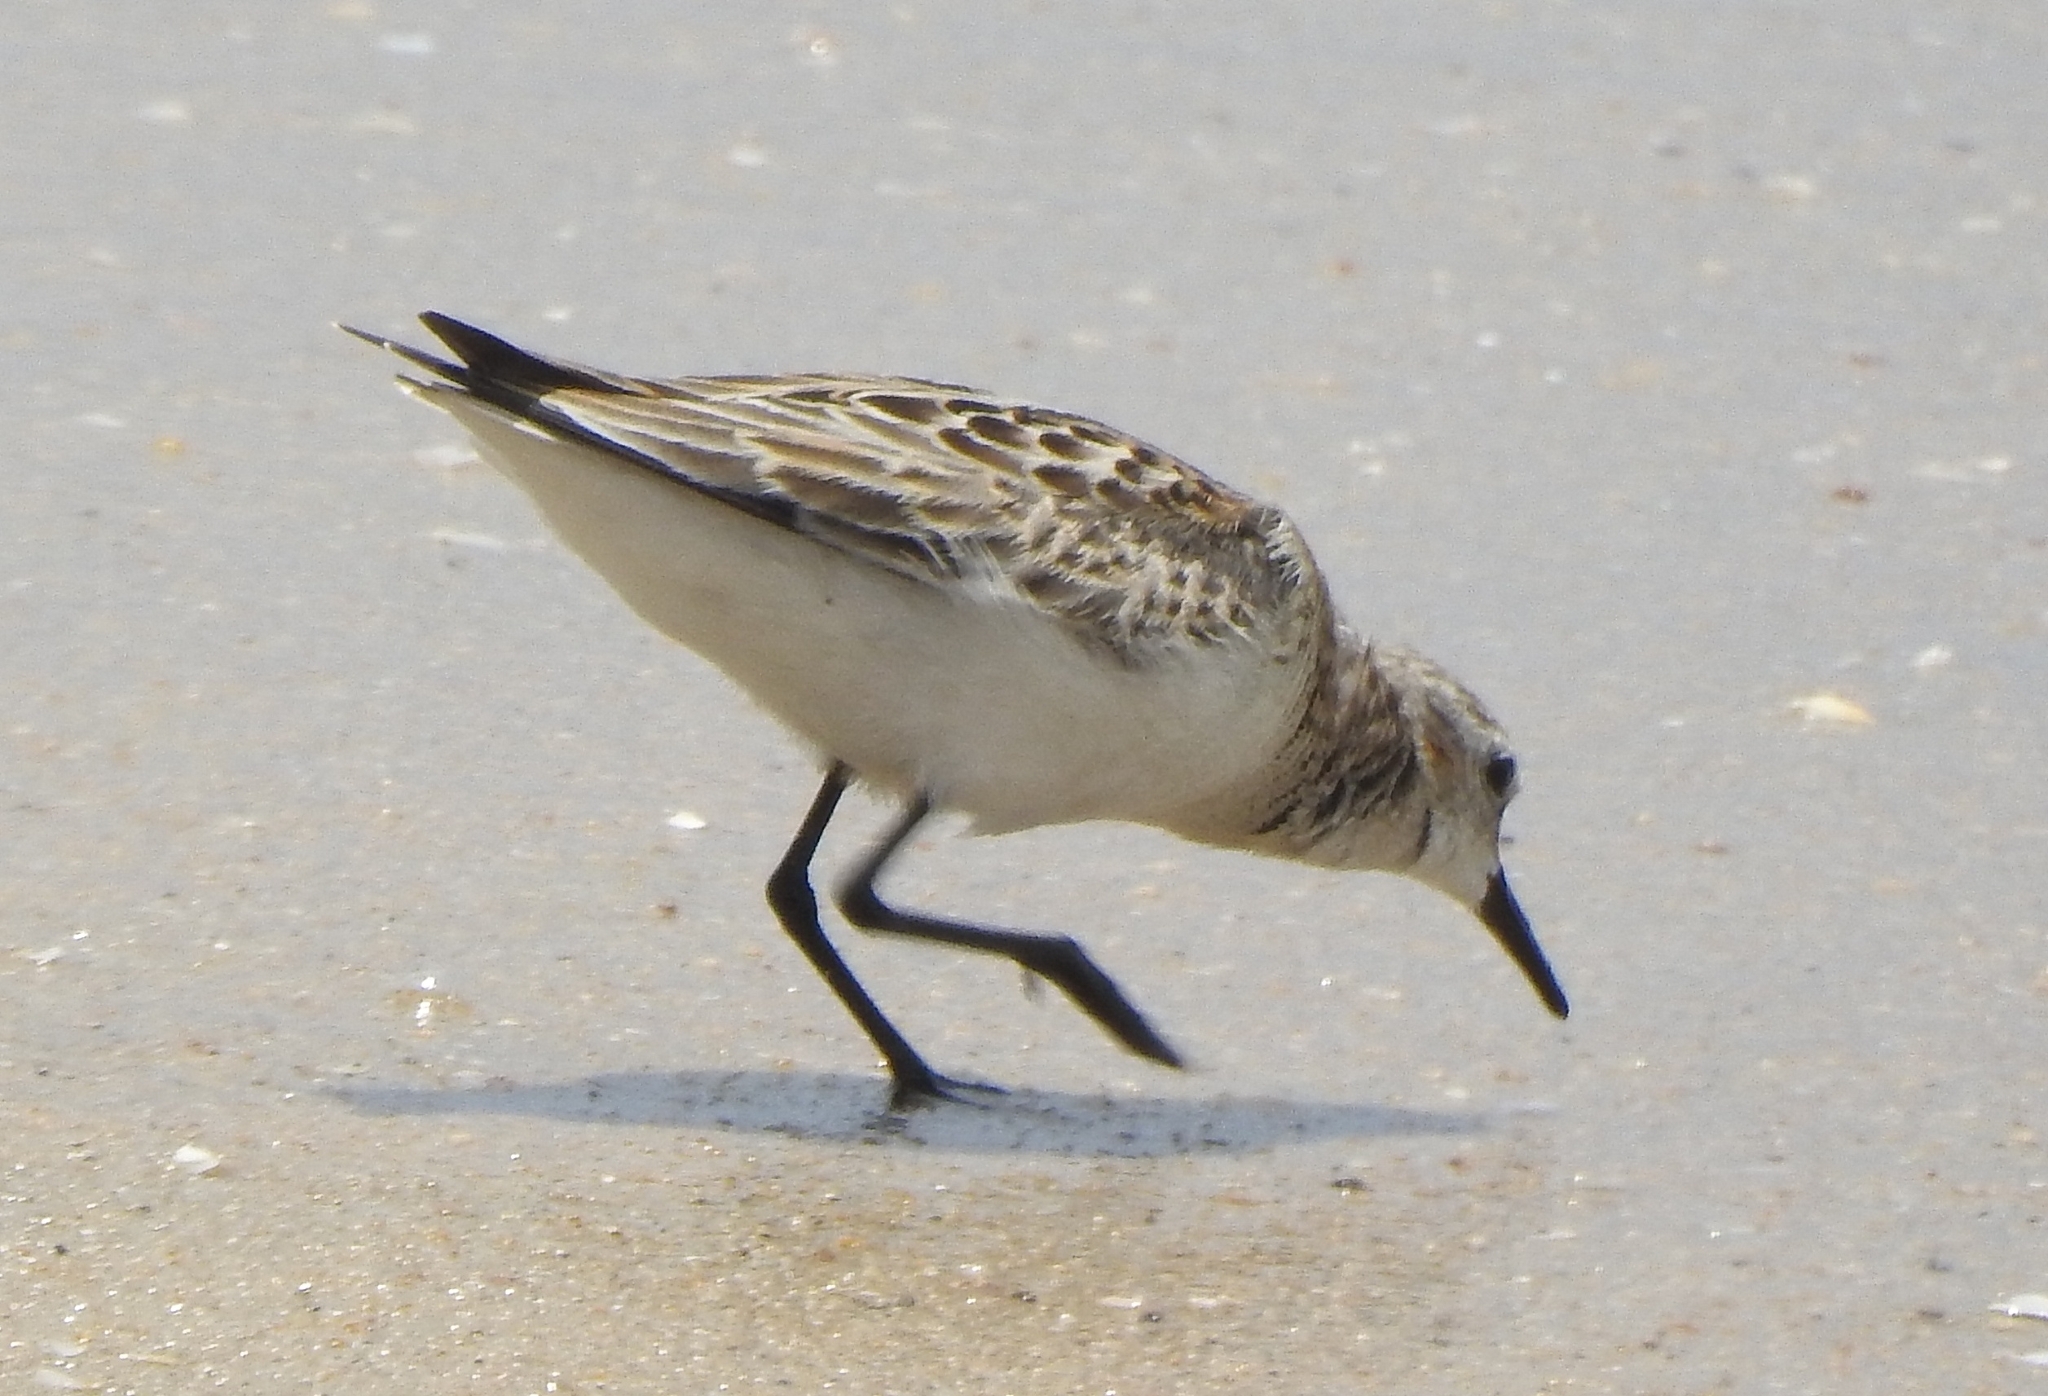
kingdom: Animalia
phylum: Chordata
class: Aves
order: Charadriiformes
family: Scolopacidae
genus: Calidris
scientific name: Calidris minuta
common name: Little stint
